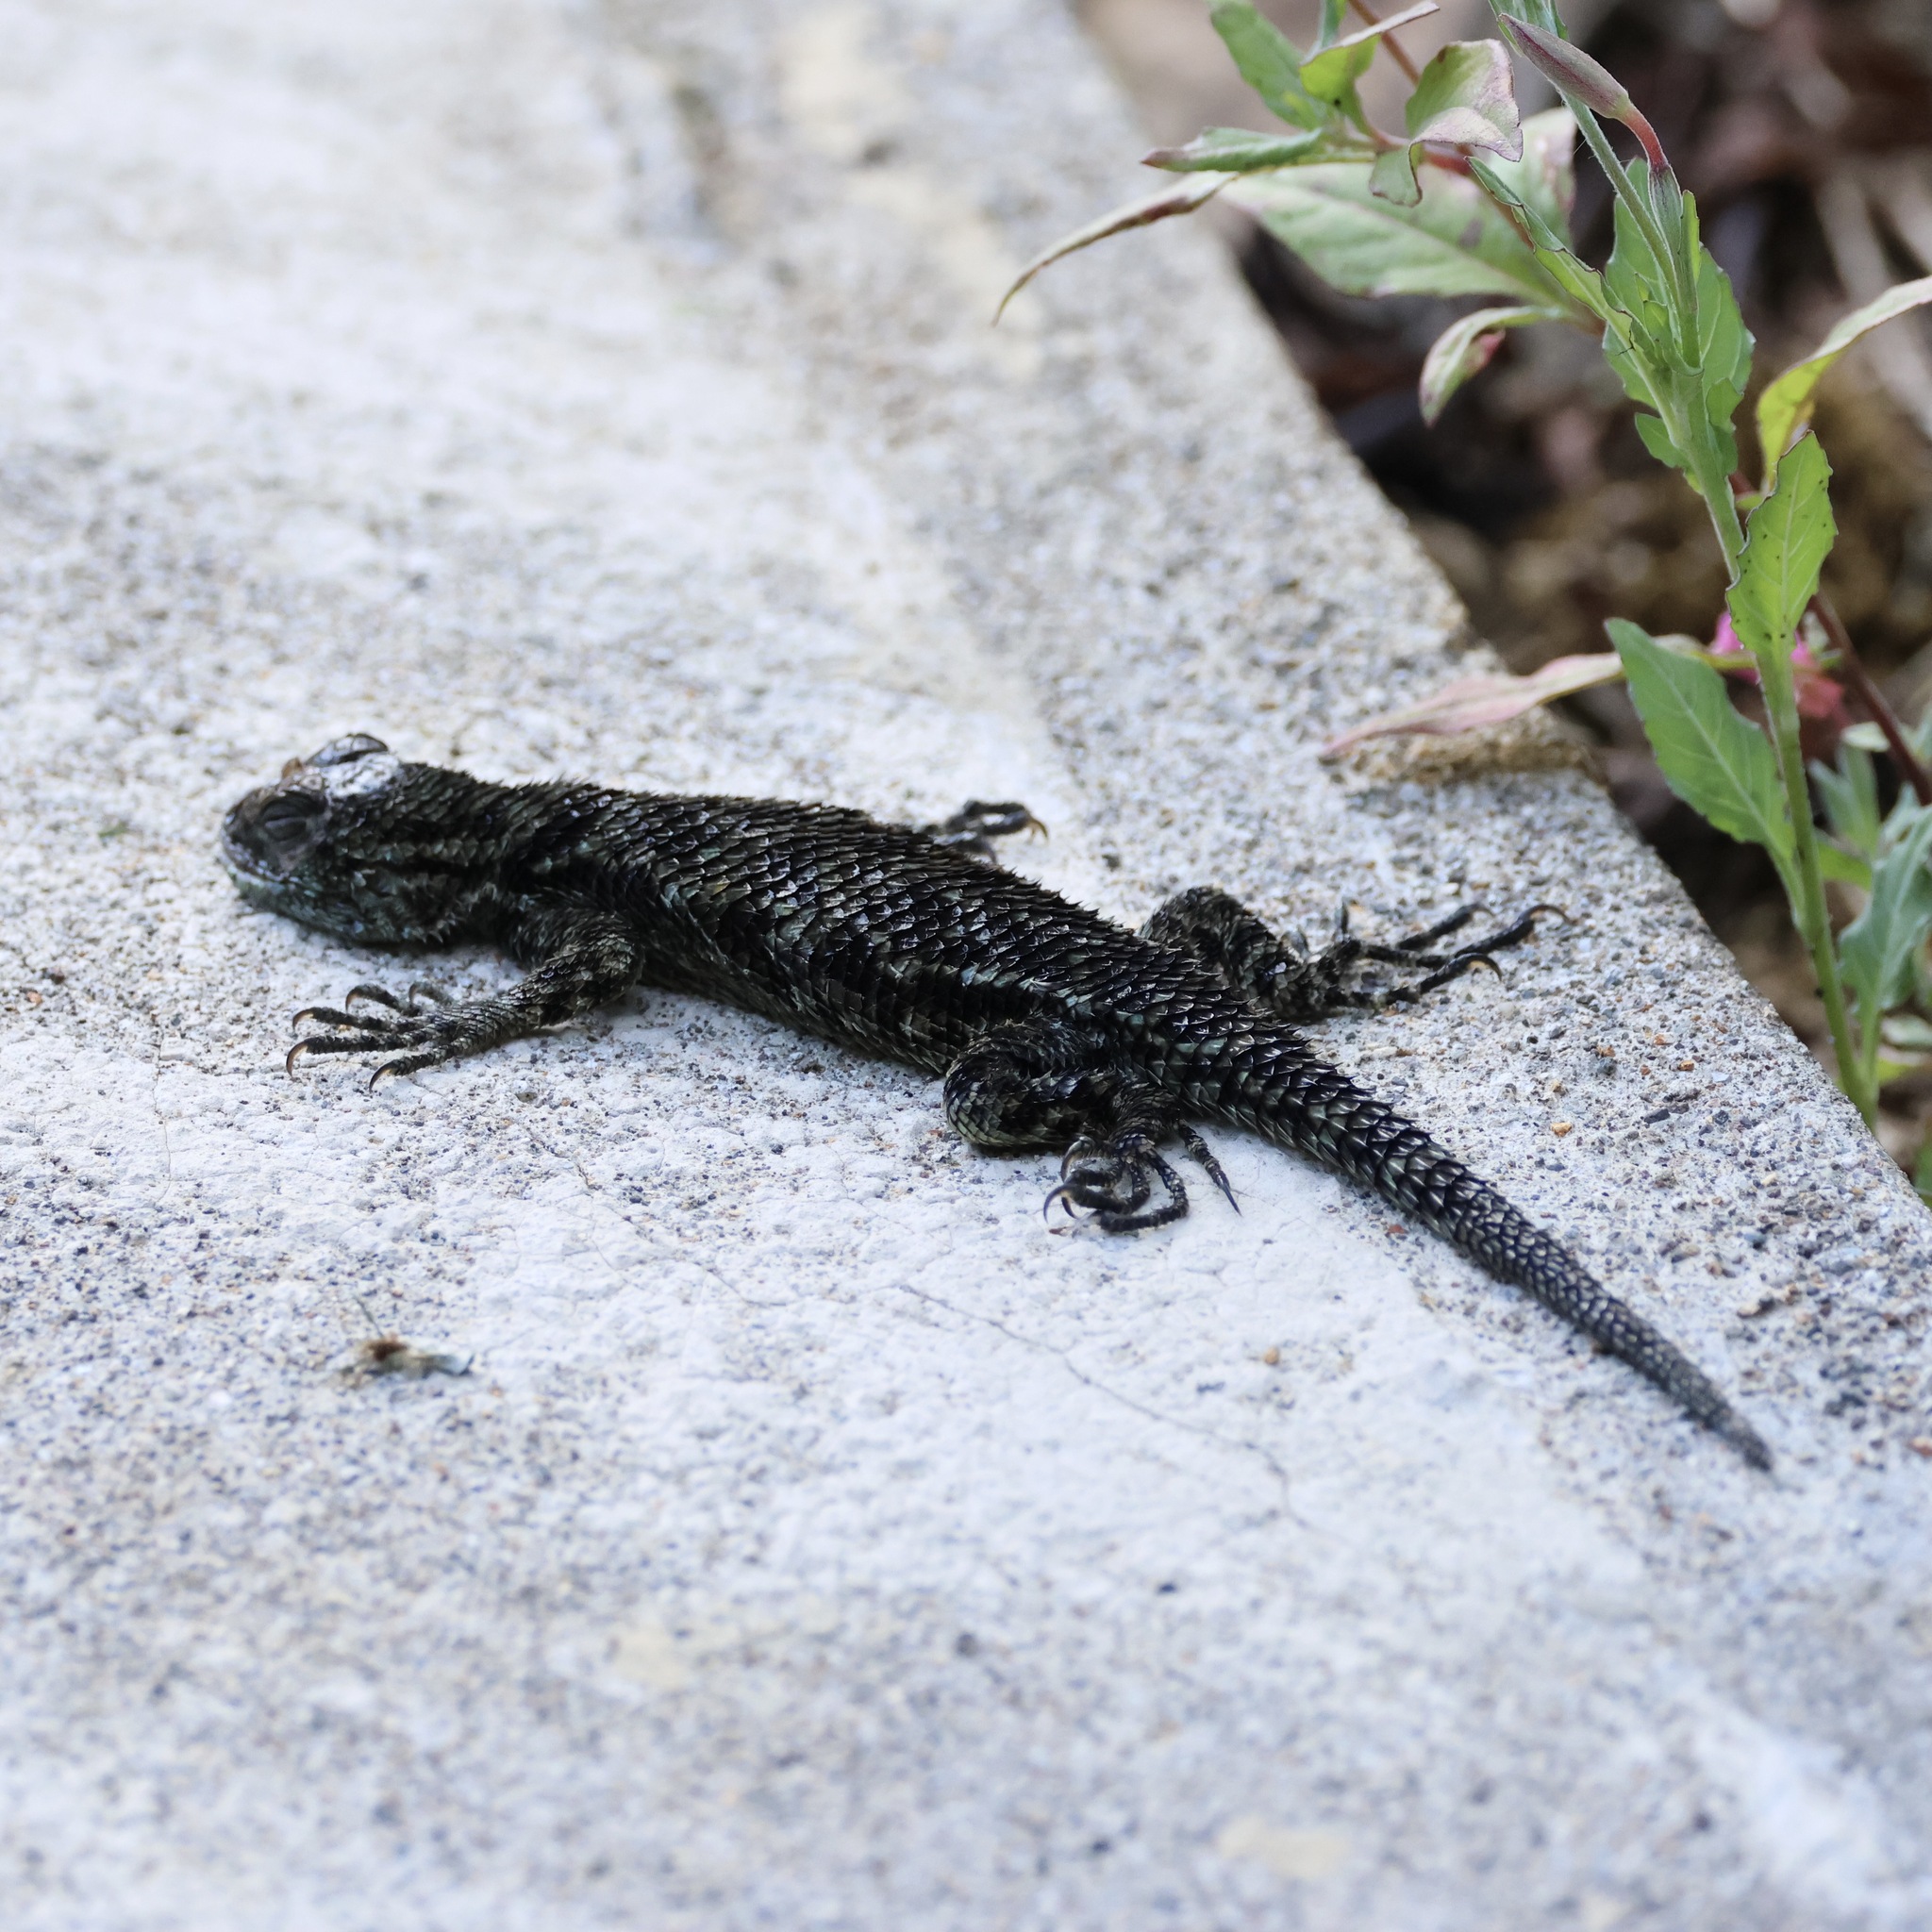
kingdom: Animalia
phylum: Chordata
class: Squamata
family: Phrynosomatidae
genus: Sceloporus
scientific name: Sceloporus malachiticus
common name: Green spiny lizard
